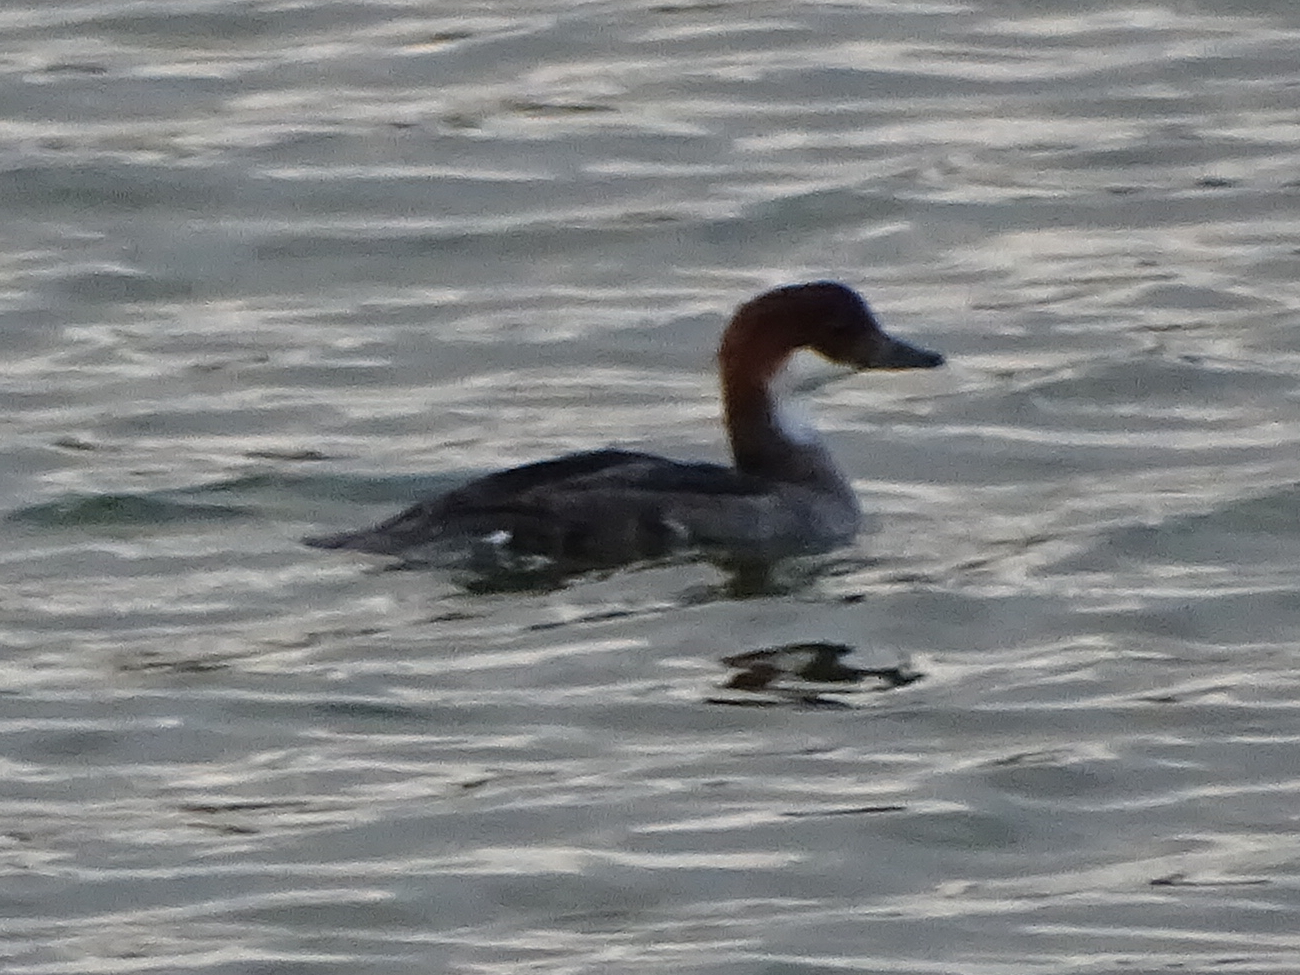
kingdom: Animalia
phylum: Chordata
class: Aves
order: Anseriformes
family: Anatidae
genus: Mergellus
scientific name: Mergellus albellus
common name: Smew
